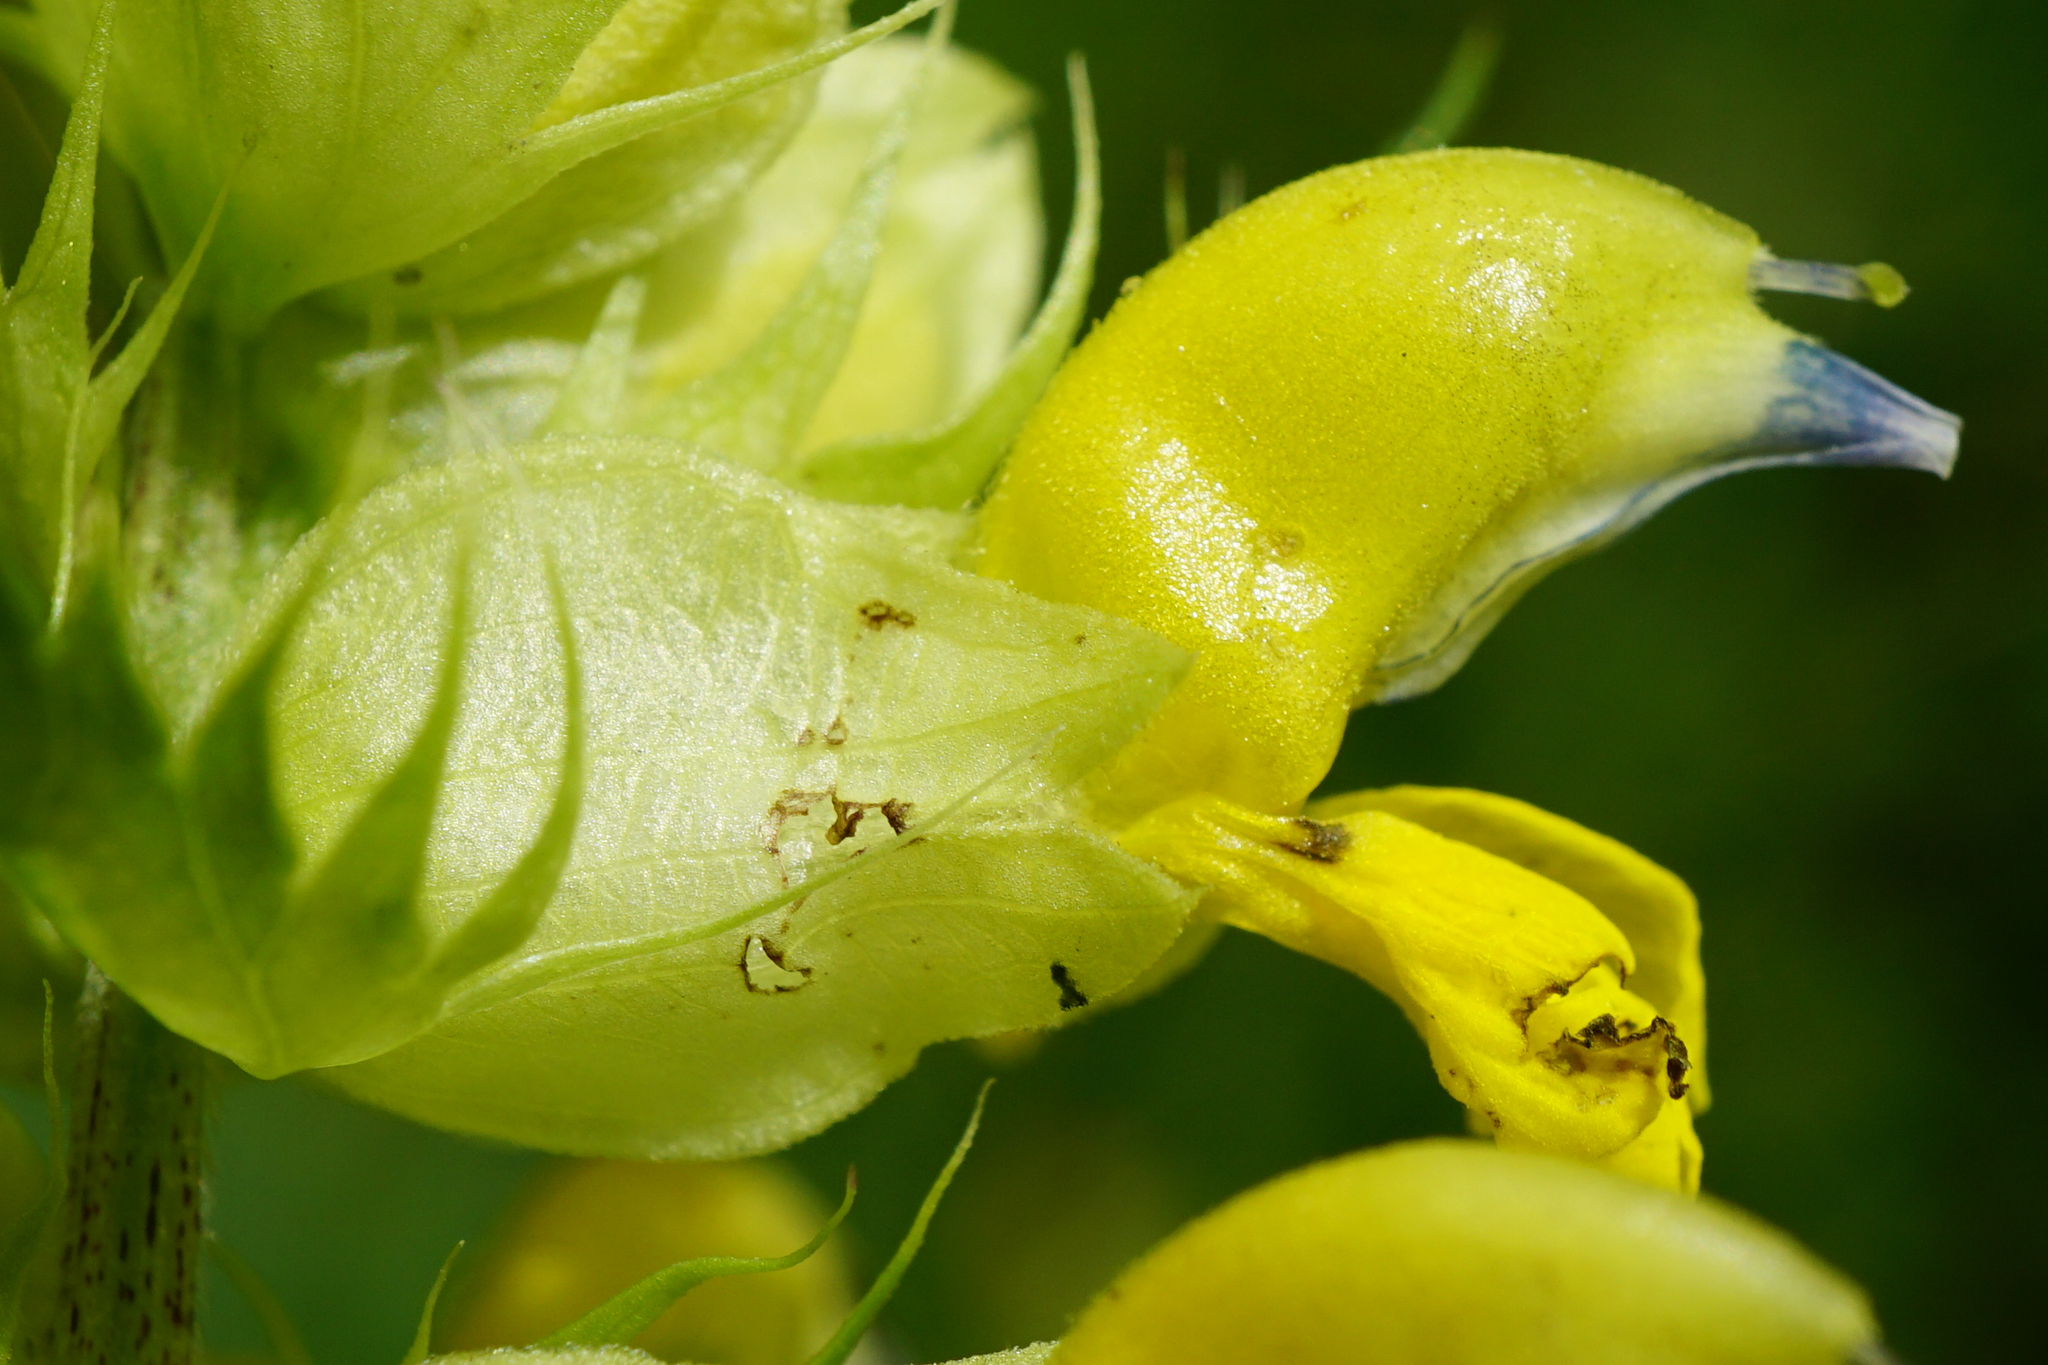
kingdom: Plantae
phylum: Tracheophyta
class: Magnoliopsida
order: Lamiales
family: Orobanchaceae
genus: Rhinanthus
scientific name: Rhinanthus glacialis
